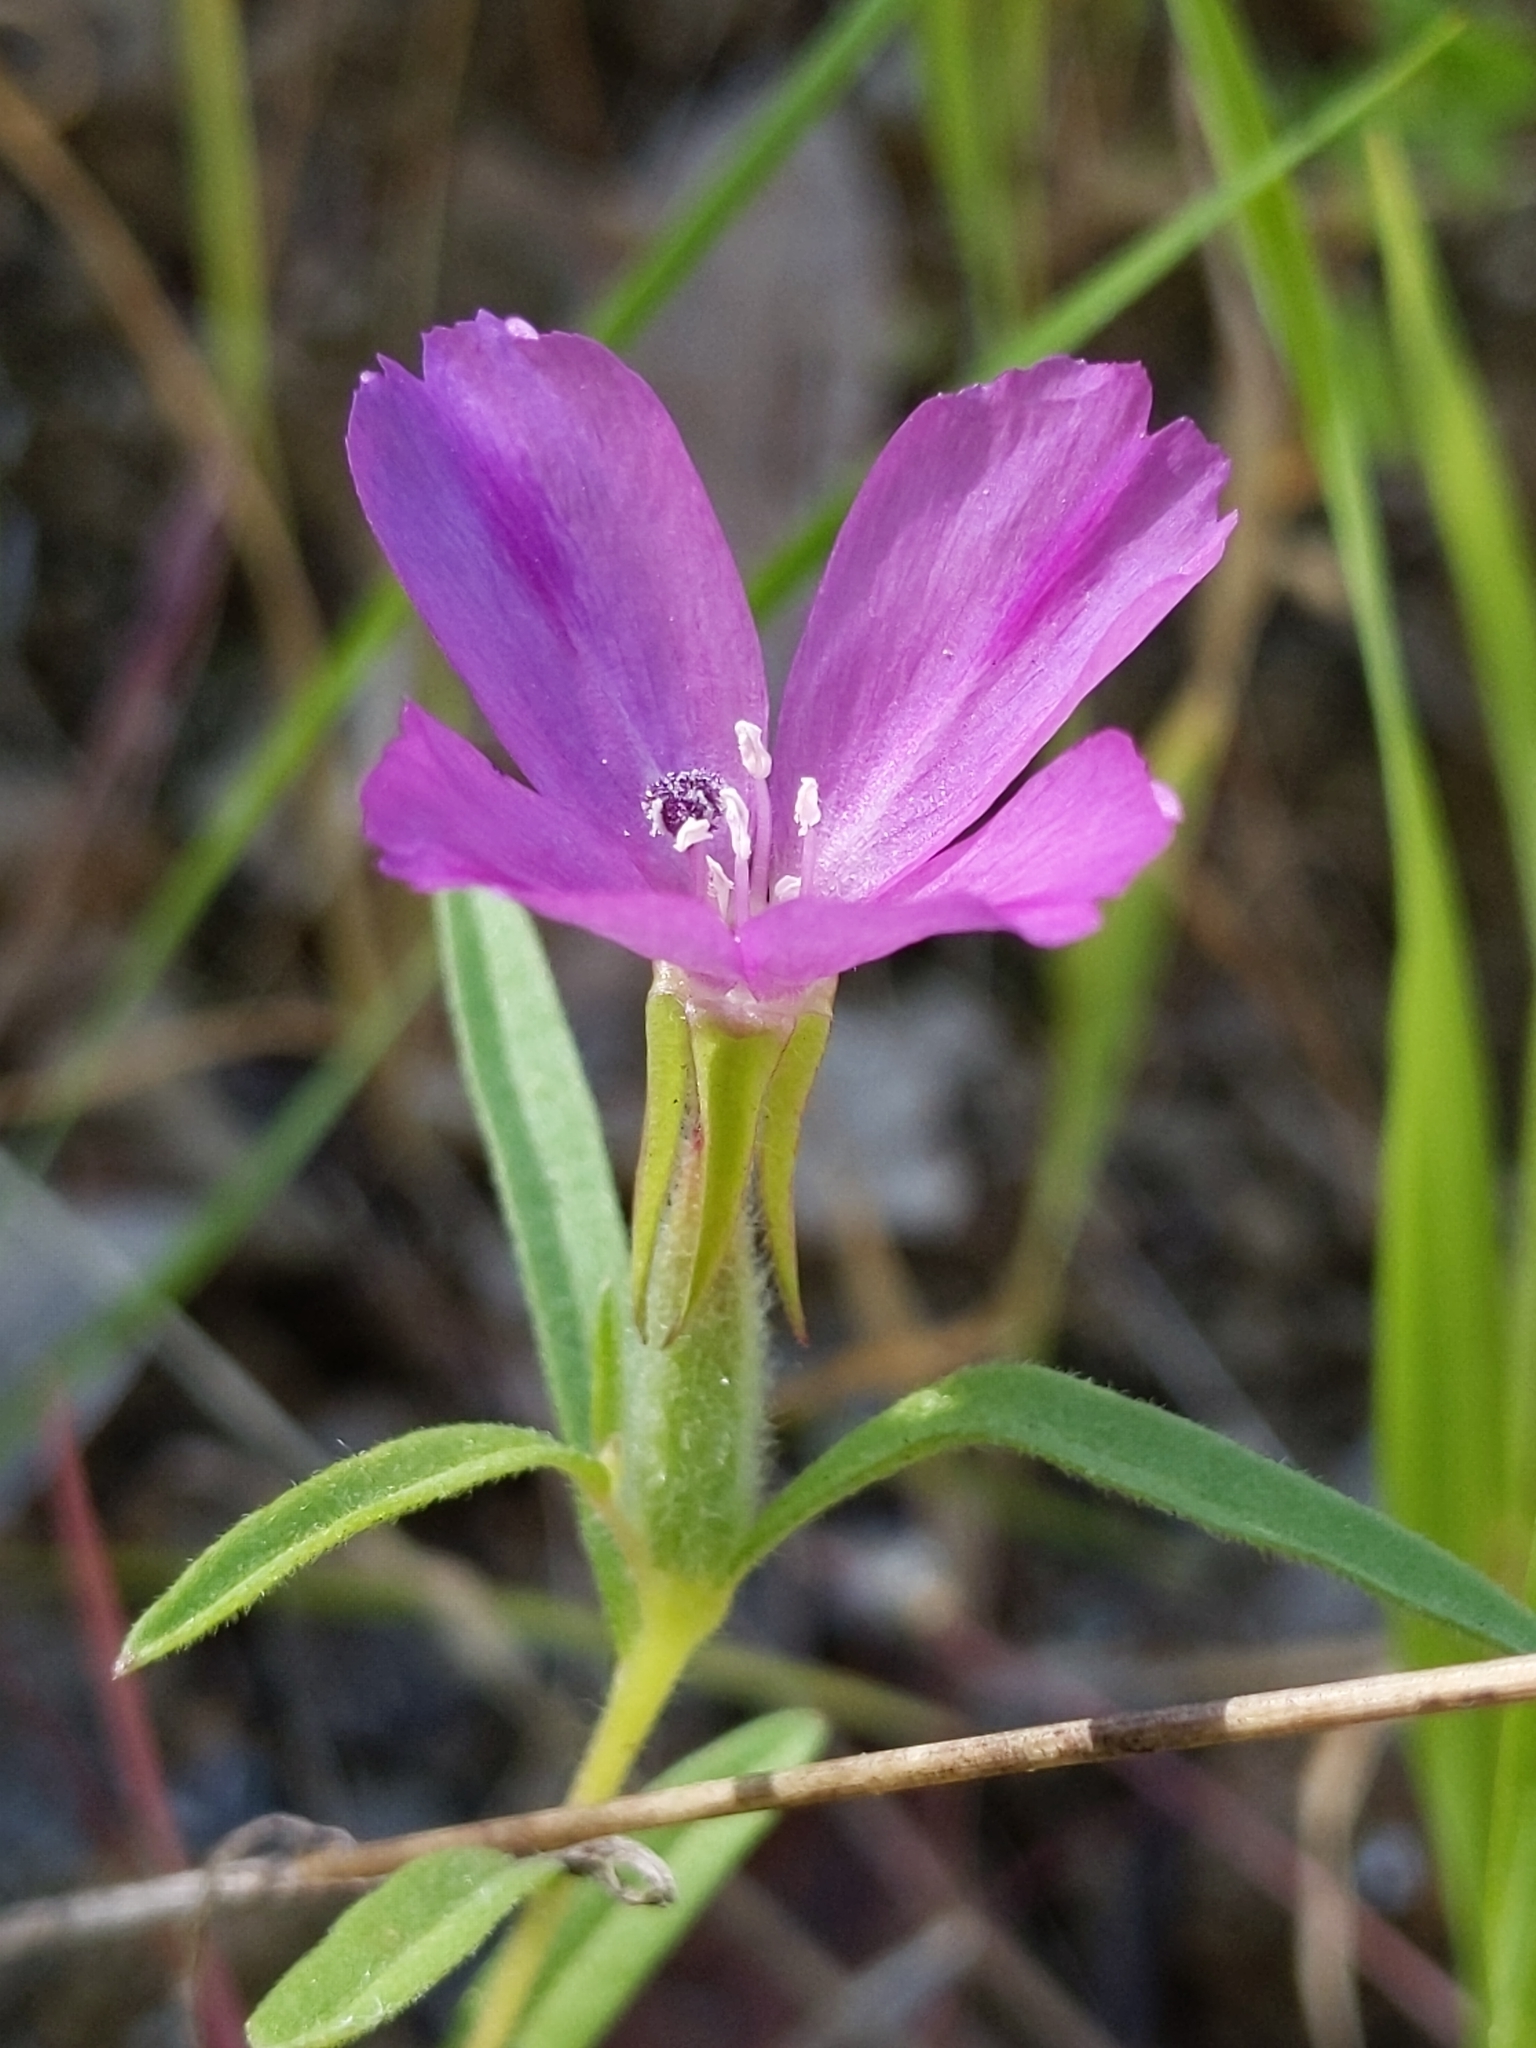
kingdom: Plantae
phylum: Tracheophyta
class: Magnoliopsida
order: Myrtales
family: Onagraceae
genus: Clarkia
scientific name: Clarkia purpurea
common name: Purple clarkia
